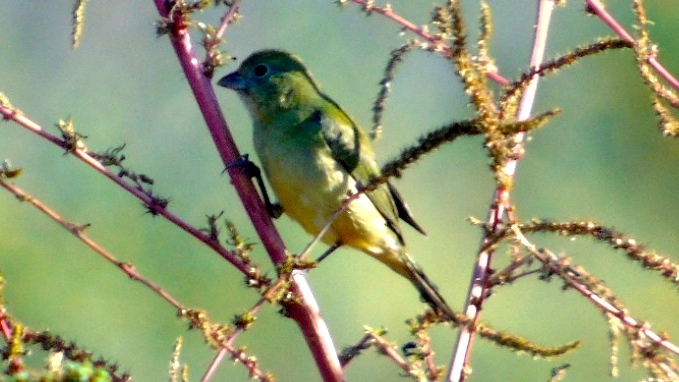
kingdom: Animalia
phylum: Chordata
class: Aves
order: Passeriformes
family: Cardinalidae
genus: Passerina
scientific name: Passerina ciris
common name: Painted bunting
